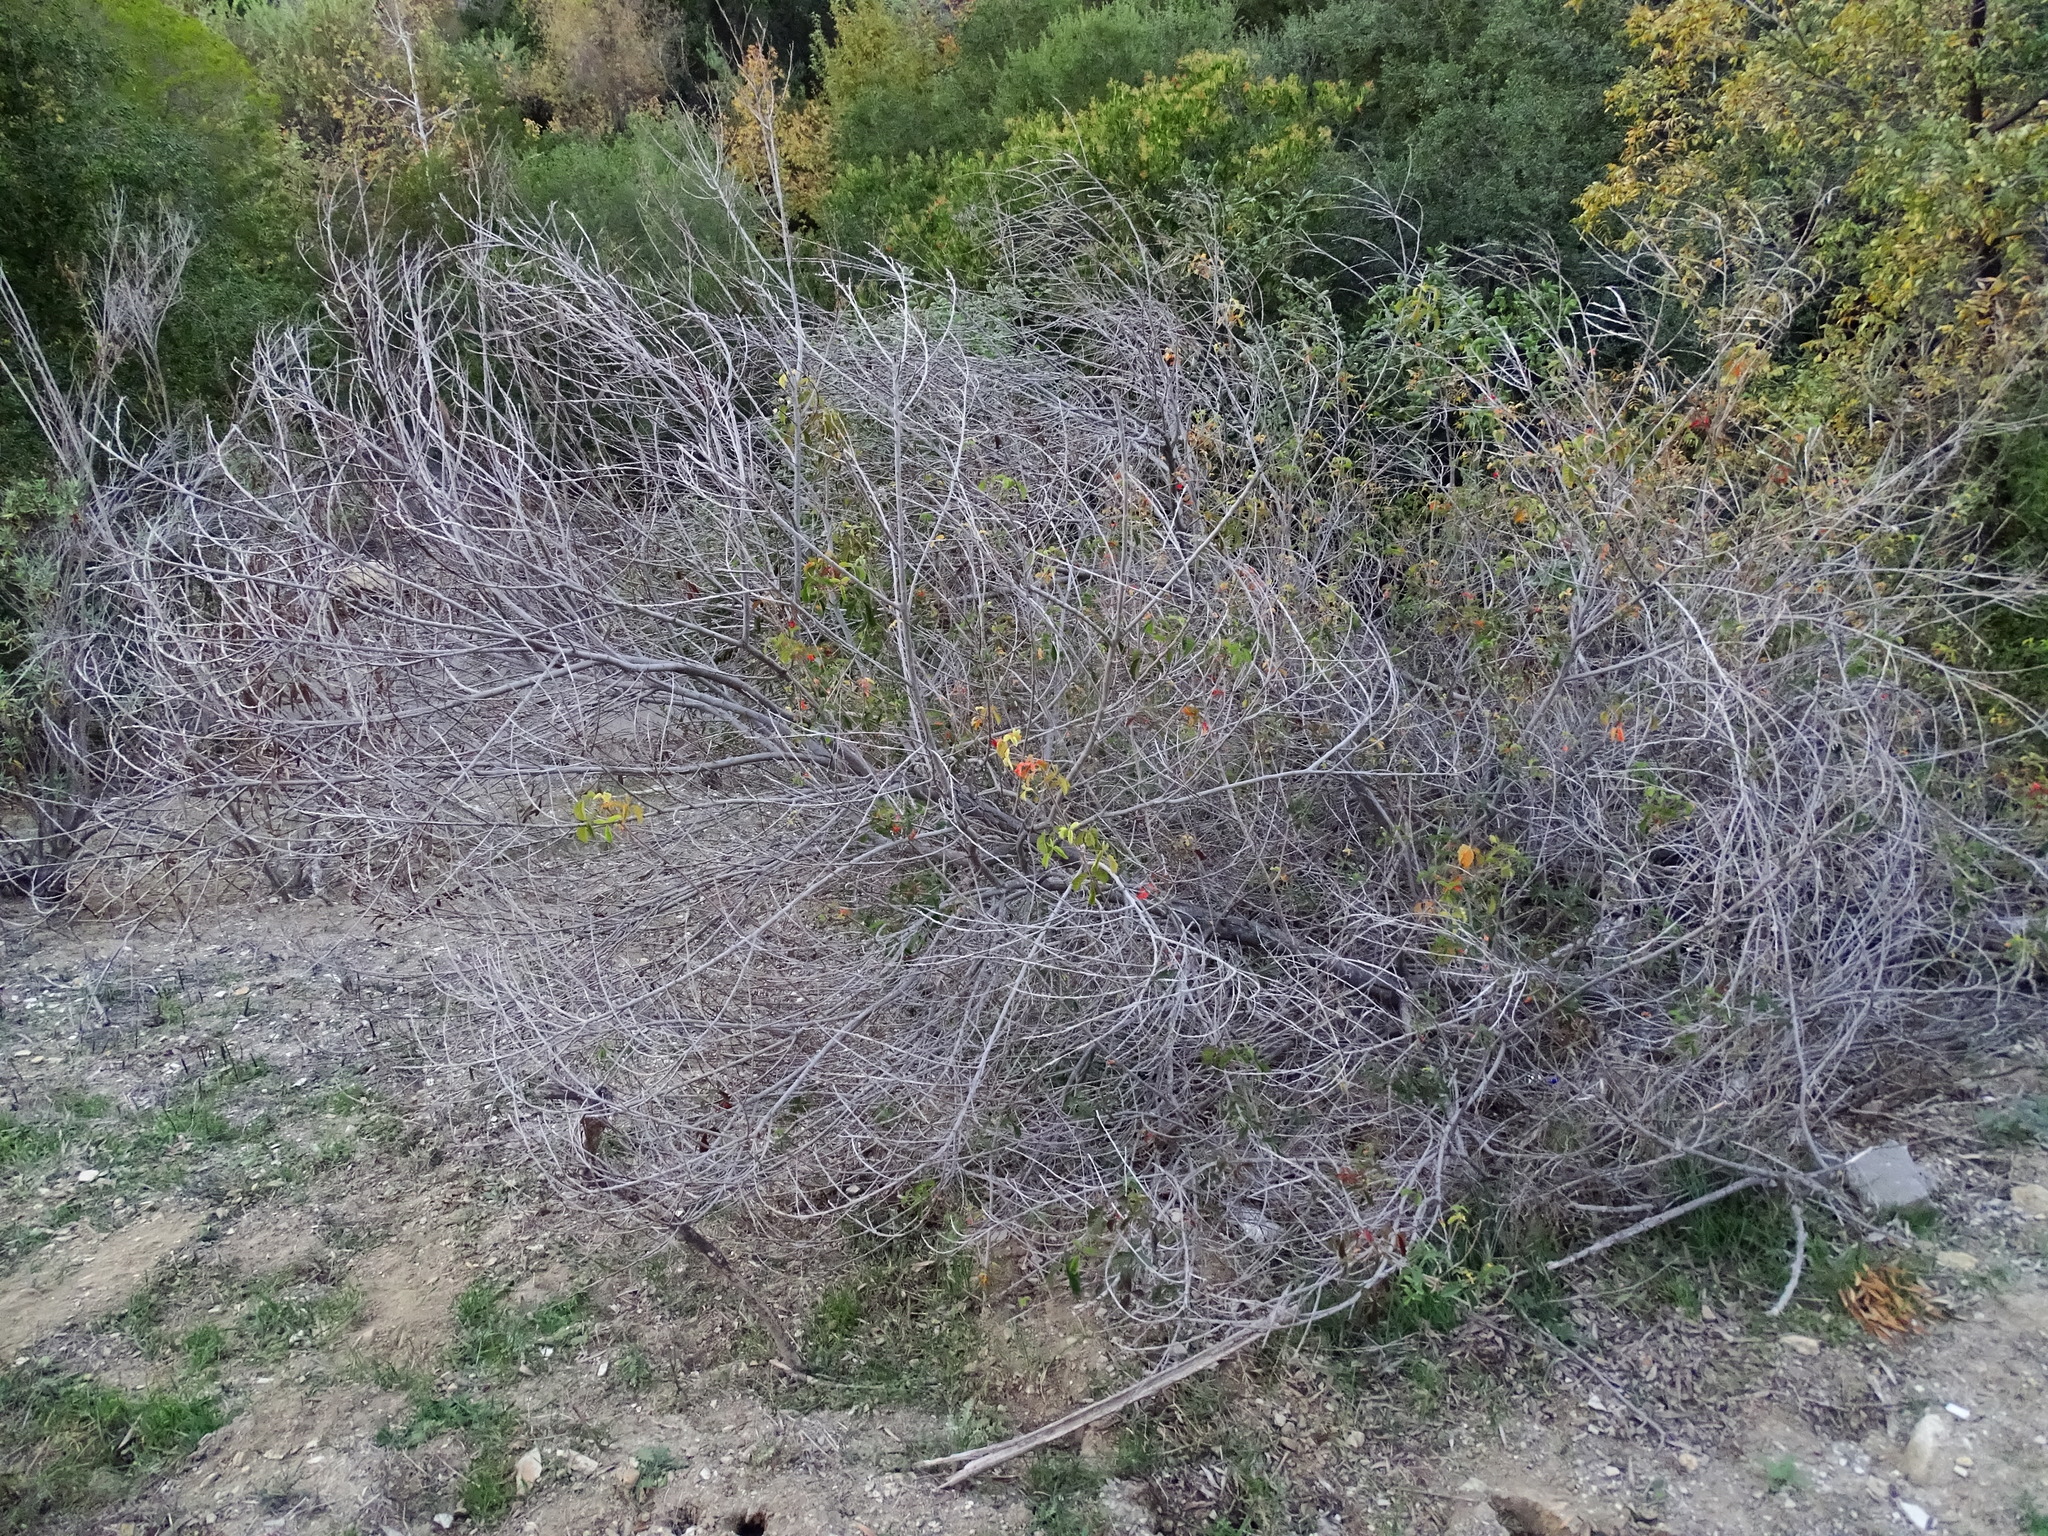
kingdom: Plantae
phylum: Tracheophyta
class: Magnoliopsida
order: Sapindales
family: Anacardiaceae
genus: Toxicodendron
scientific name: Toxicodendron diversilobum
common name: Pacific poison-oak
